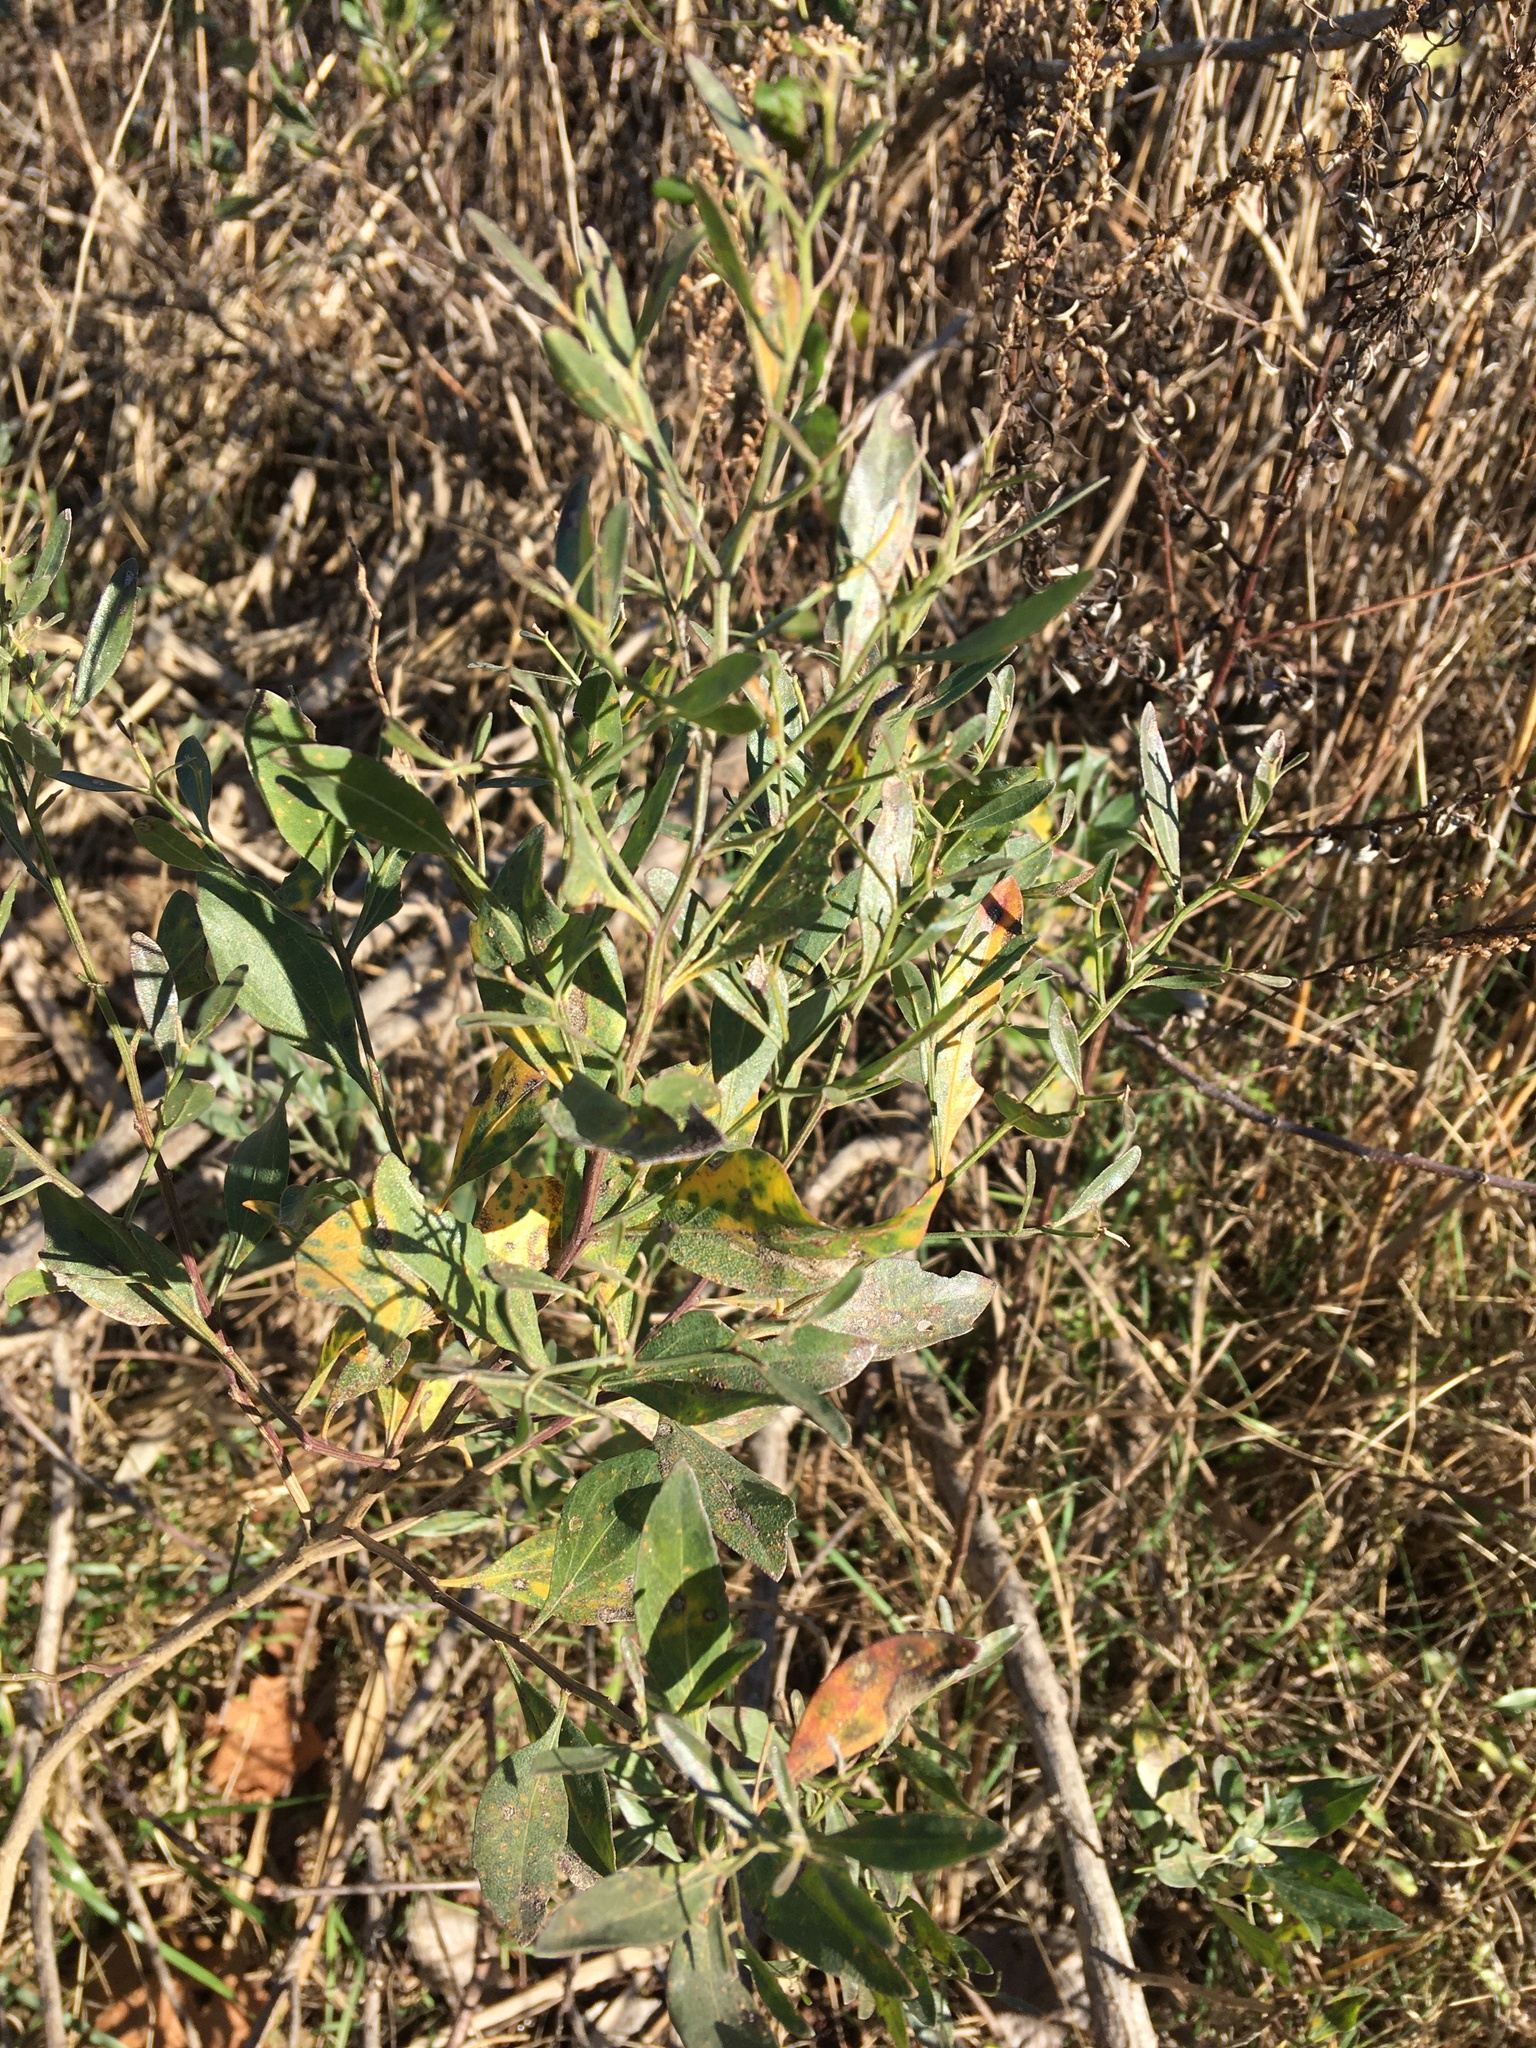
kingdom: Plantae
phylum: Tracheophyta
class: Magnoliopsida
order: Asterales
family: Asteraceae
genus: Baccharis
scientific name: Baccharis halimifolia
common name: Eastern baccharis
